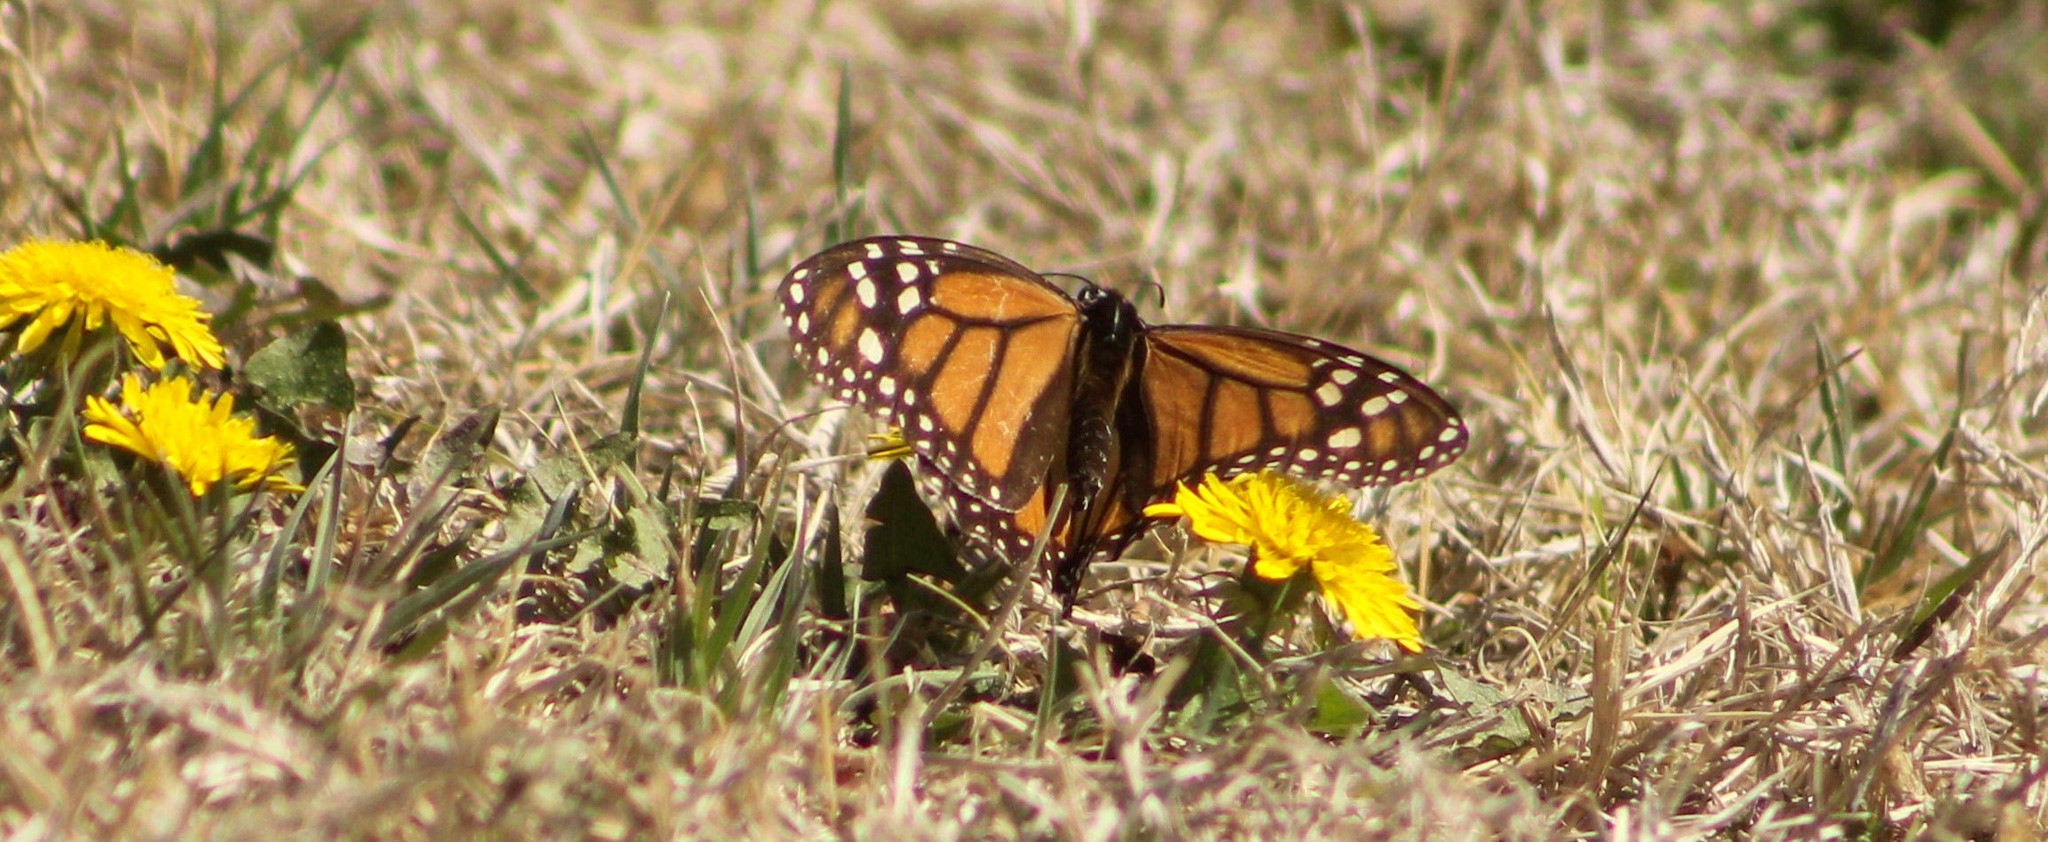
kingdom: Animalia
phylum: Arthropoda
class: Insecta
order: Lepidoptera
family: Nymphalidae
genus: Danaus
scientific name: Danaus plexippus
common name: Monarch
